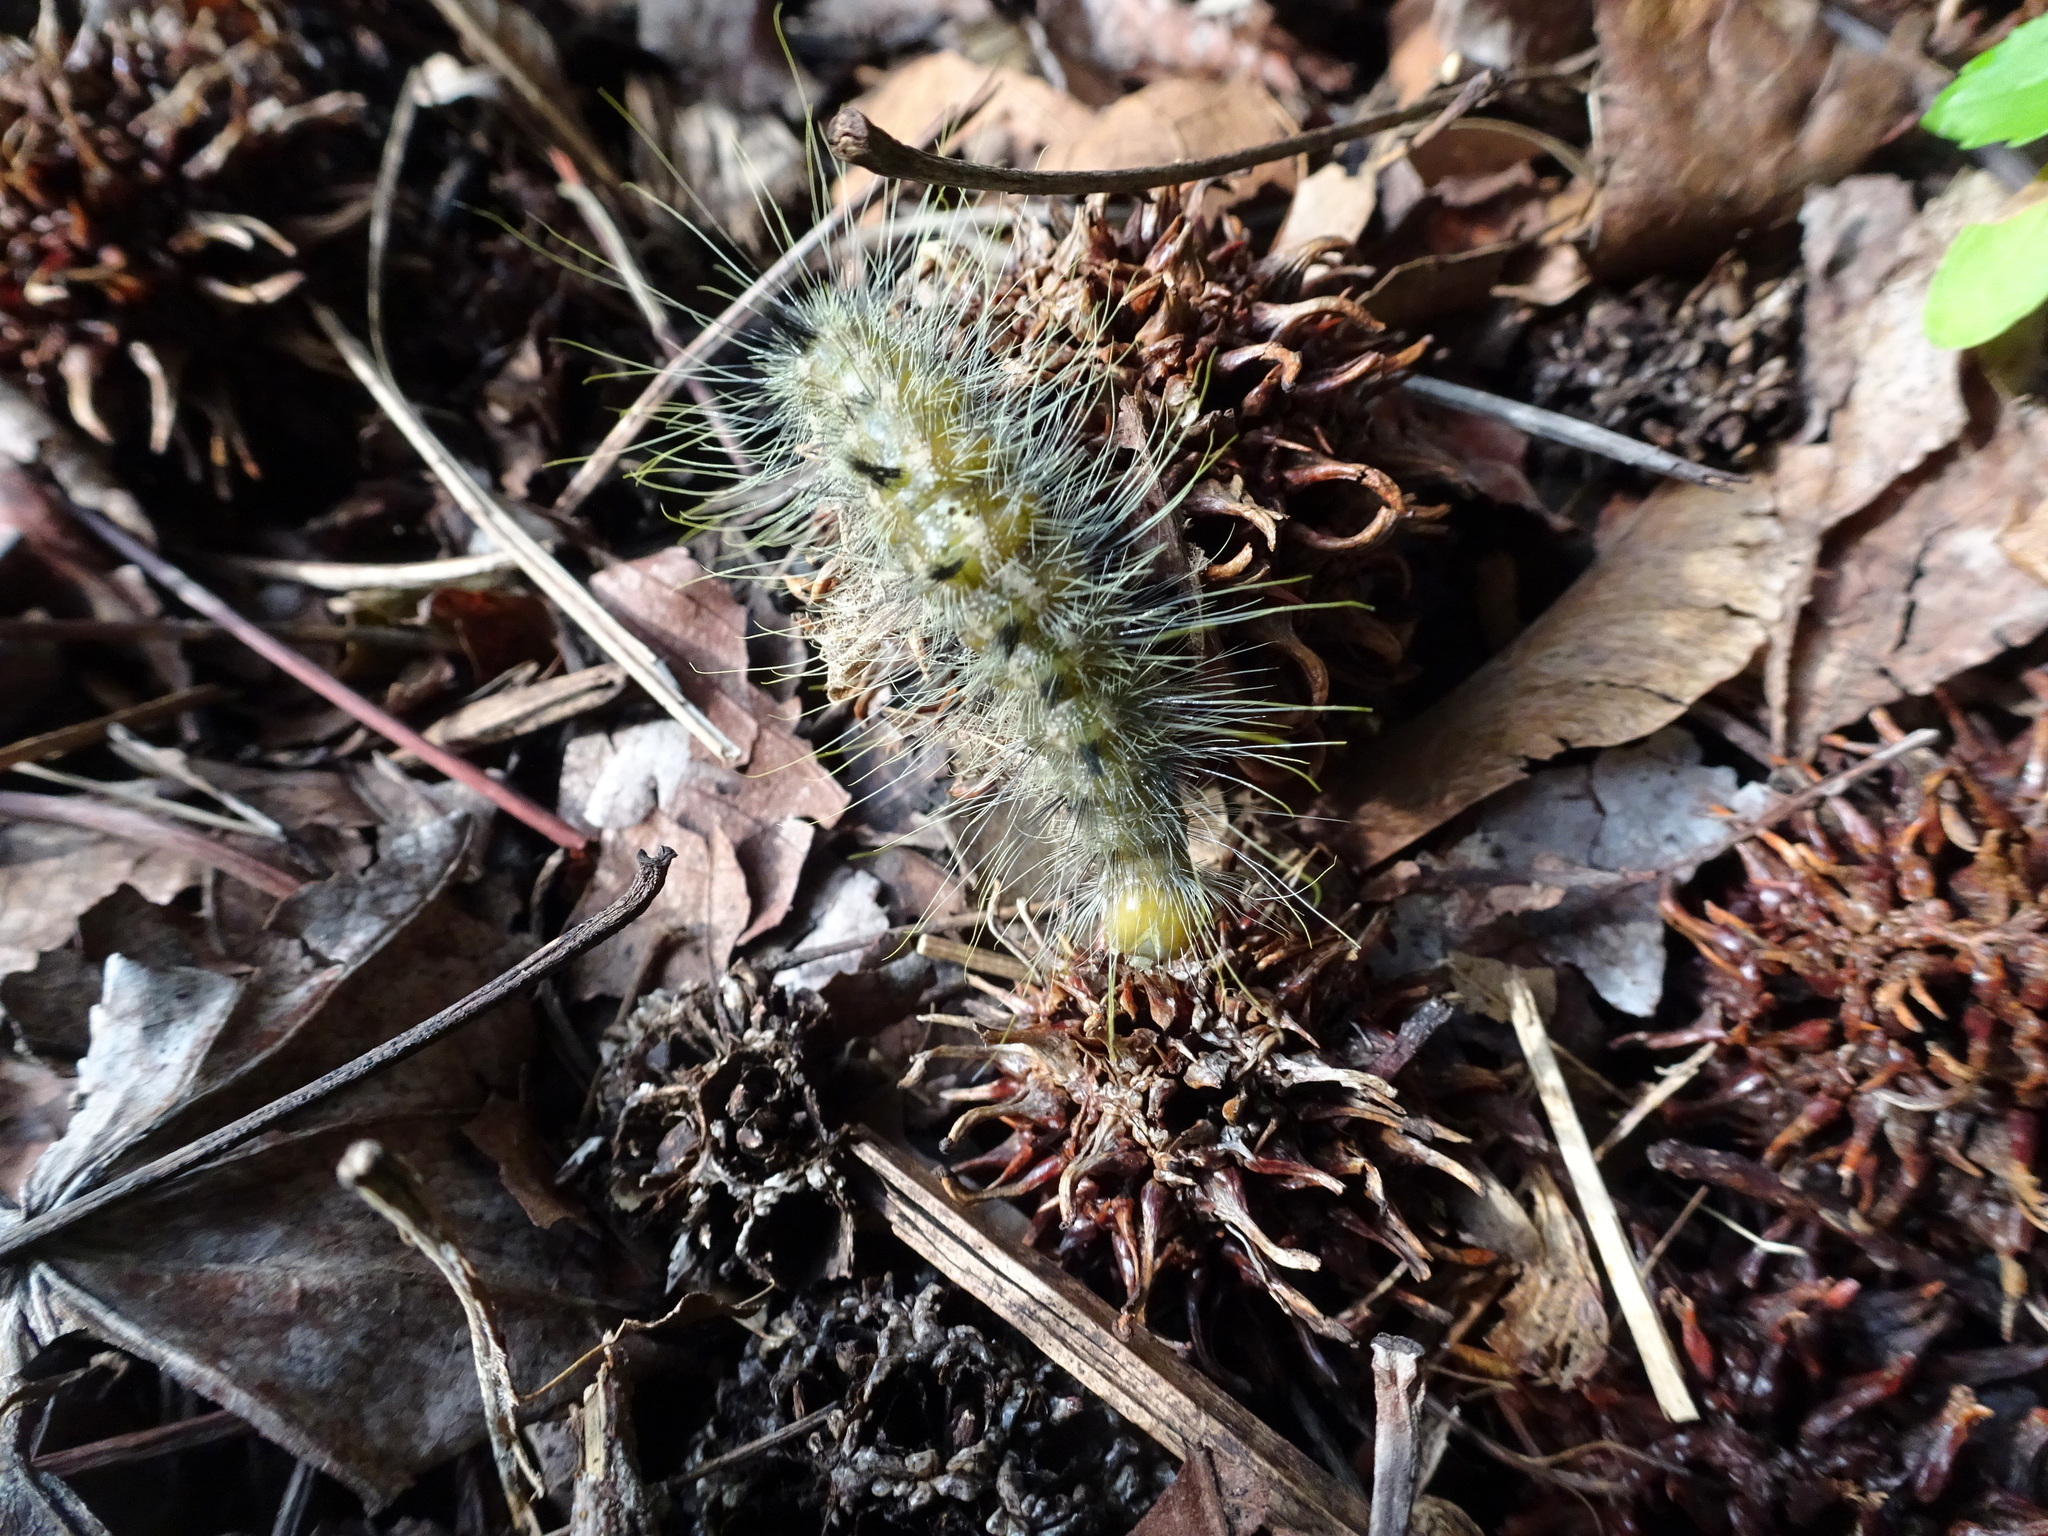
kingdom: Animalia
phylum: Arthropoda
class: Insecta
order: Lepidoptera
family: Noctuidae
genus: Acronicta
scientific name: Acronicta rubricoma
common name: Hackberry dagger
